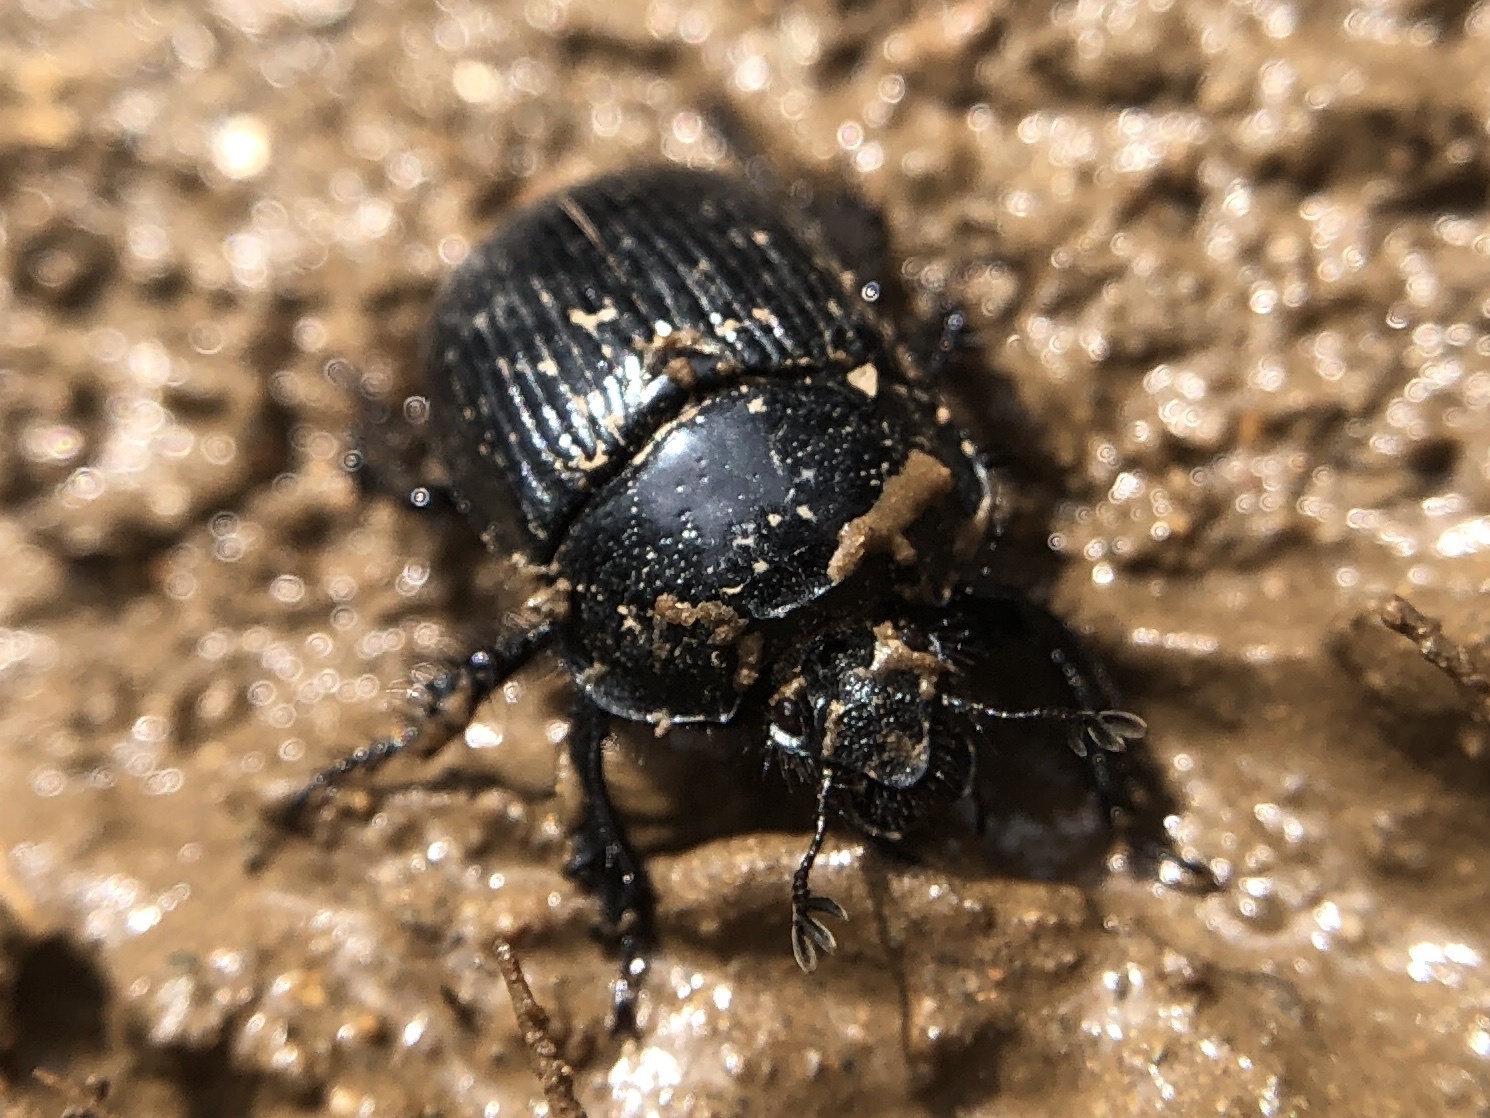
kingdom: Animalia
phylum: Arthropoda
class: Insecta
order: Coleoptera
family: Geotrupidae
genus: Ceratophyus
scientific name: Ceratophyus martinezi
